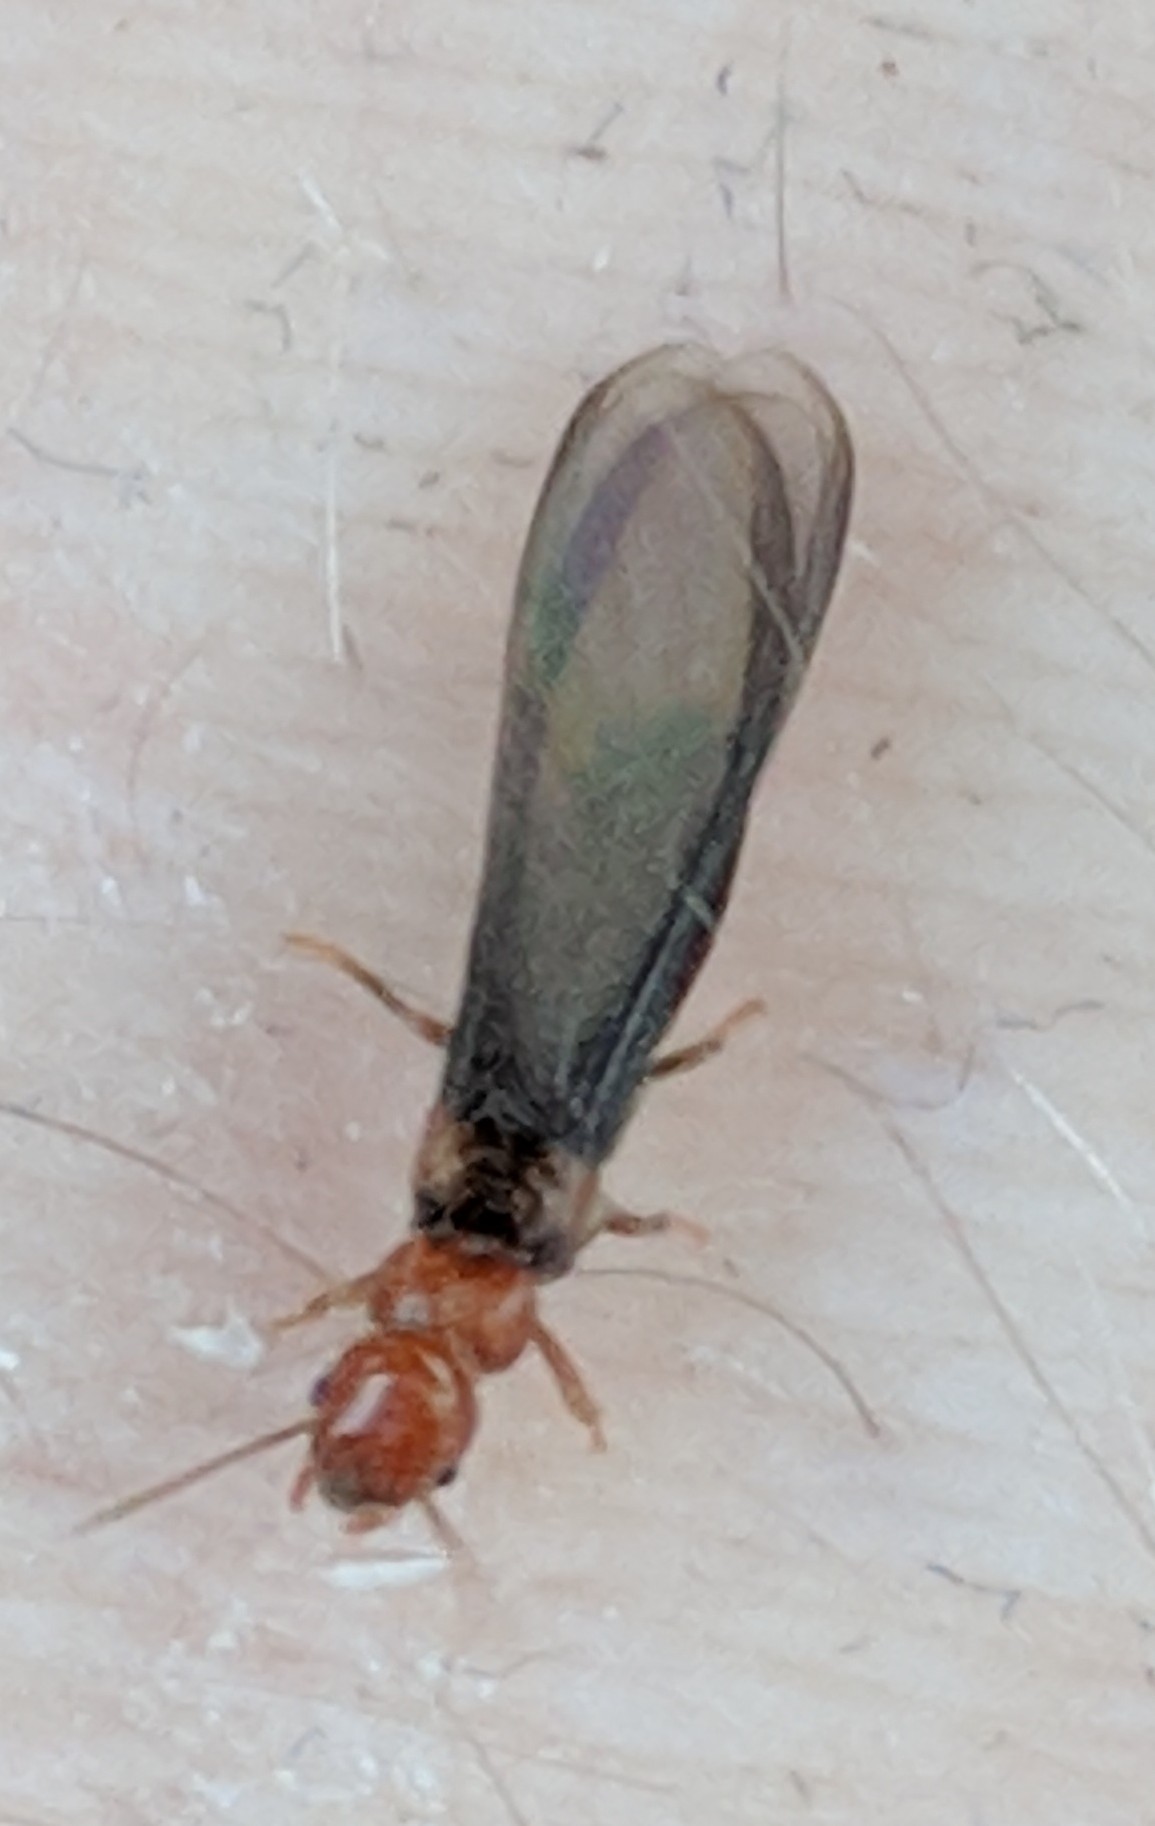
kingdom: Animalia
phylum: Arthropoda
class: Insecta
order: Blattodea
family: Kalotermitidae
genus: Incisitermes
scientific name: Incisitermes minor
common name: Termite
